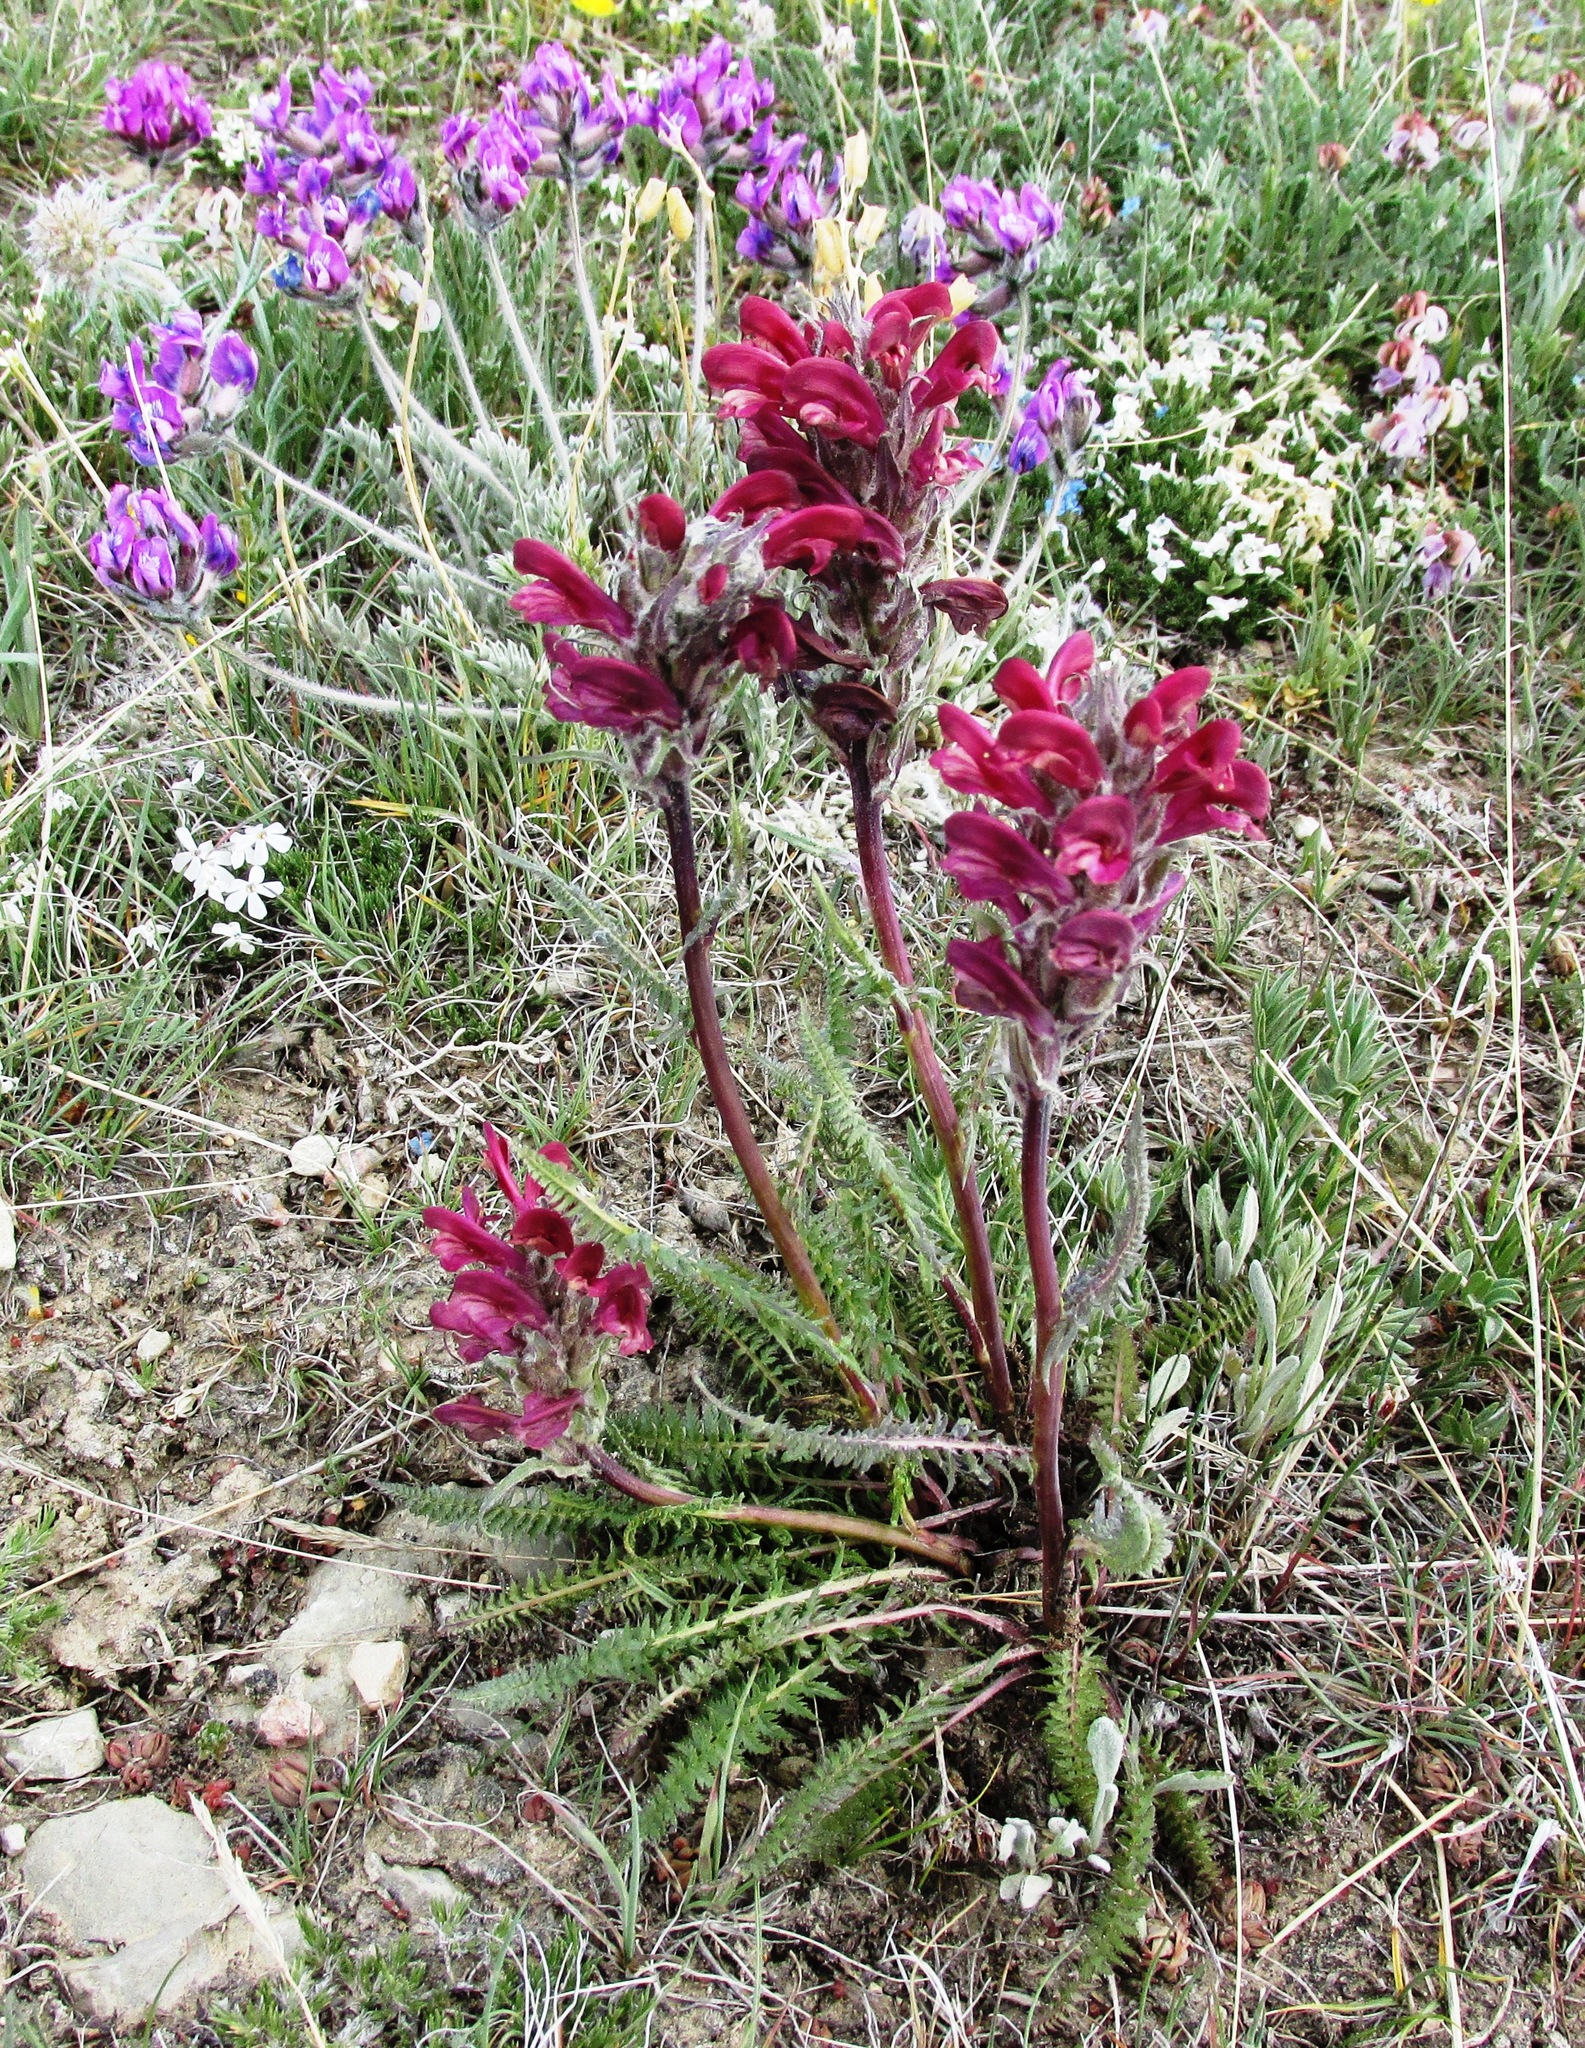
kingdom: Plantae
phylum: Tracheophyta
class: Magnoliopsida
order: Lamiales
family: Orobanchaceae
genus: Pedicularis
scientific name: Pedicularis cystopteridifolia
